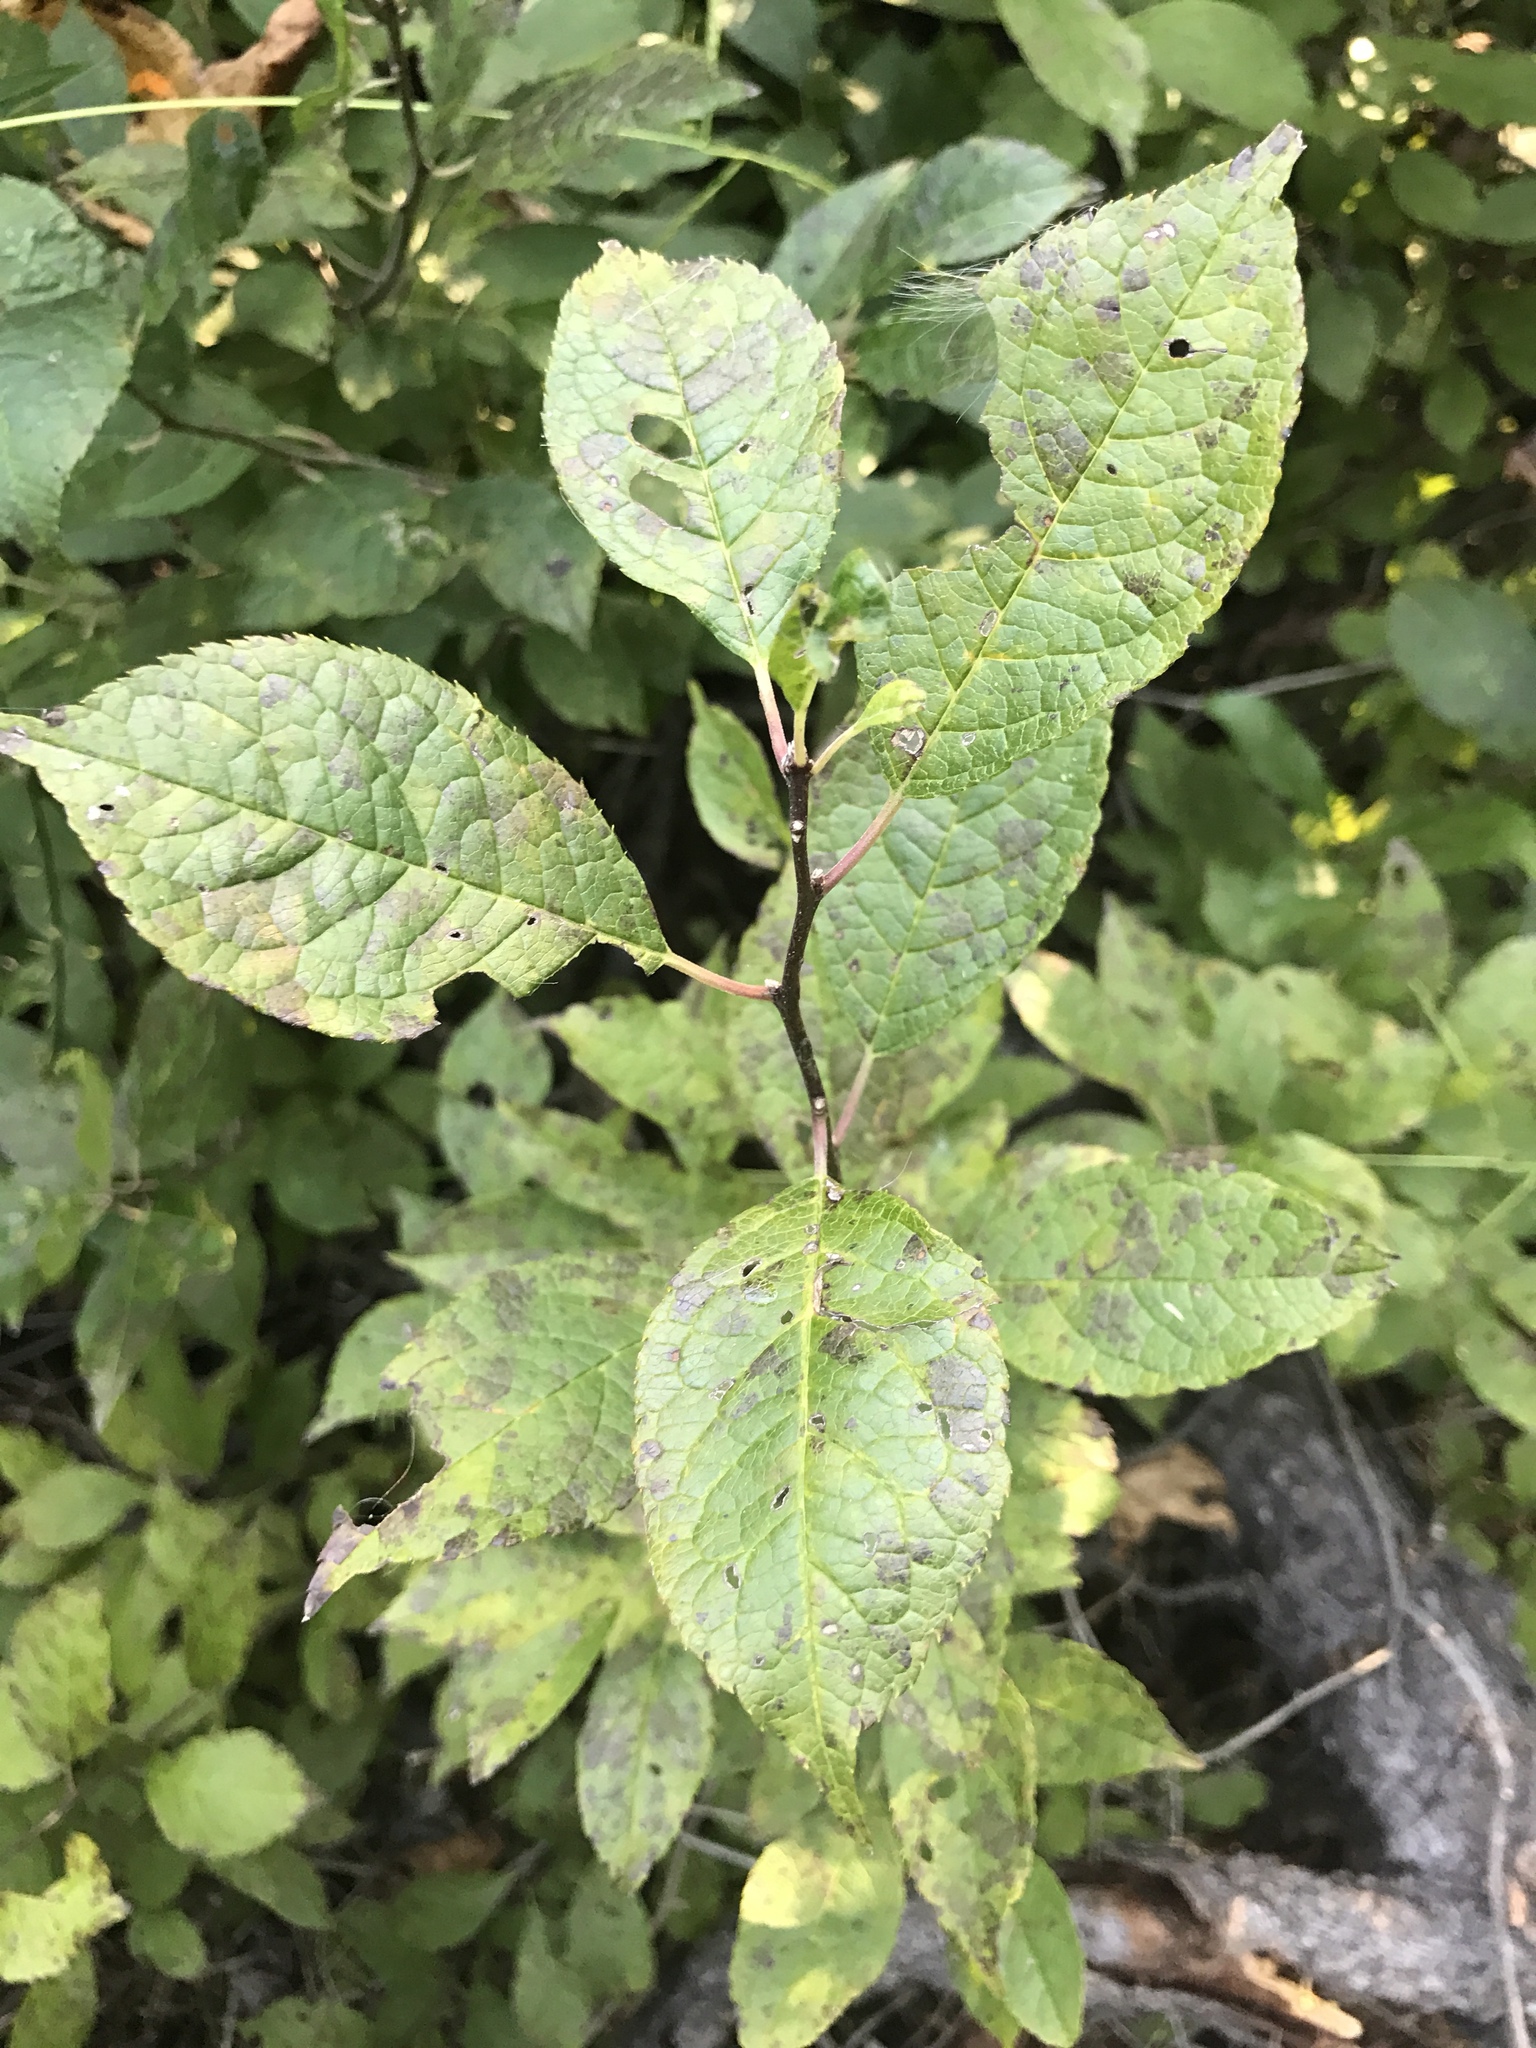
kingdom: Plantae
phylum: Tracheophyta
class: Magnoliopsida
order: Aquifoliales
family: Aquifoliaceae
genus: Ilex
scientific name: Ilex verticillata
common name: Virginia winterberry
